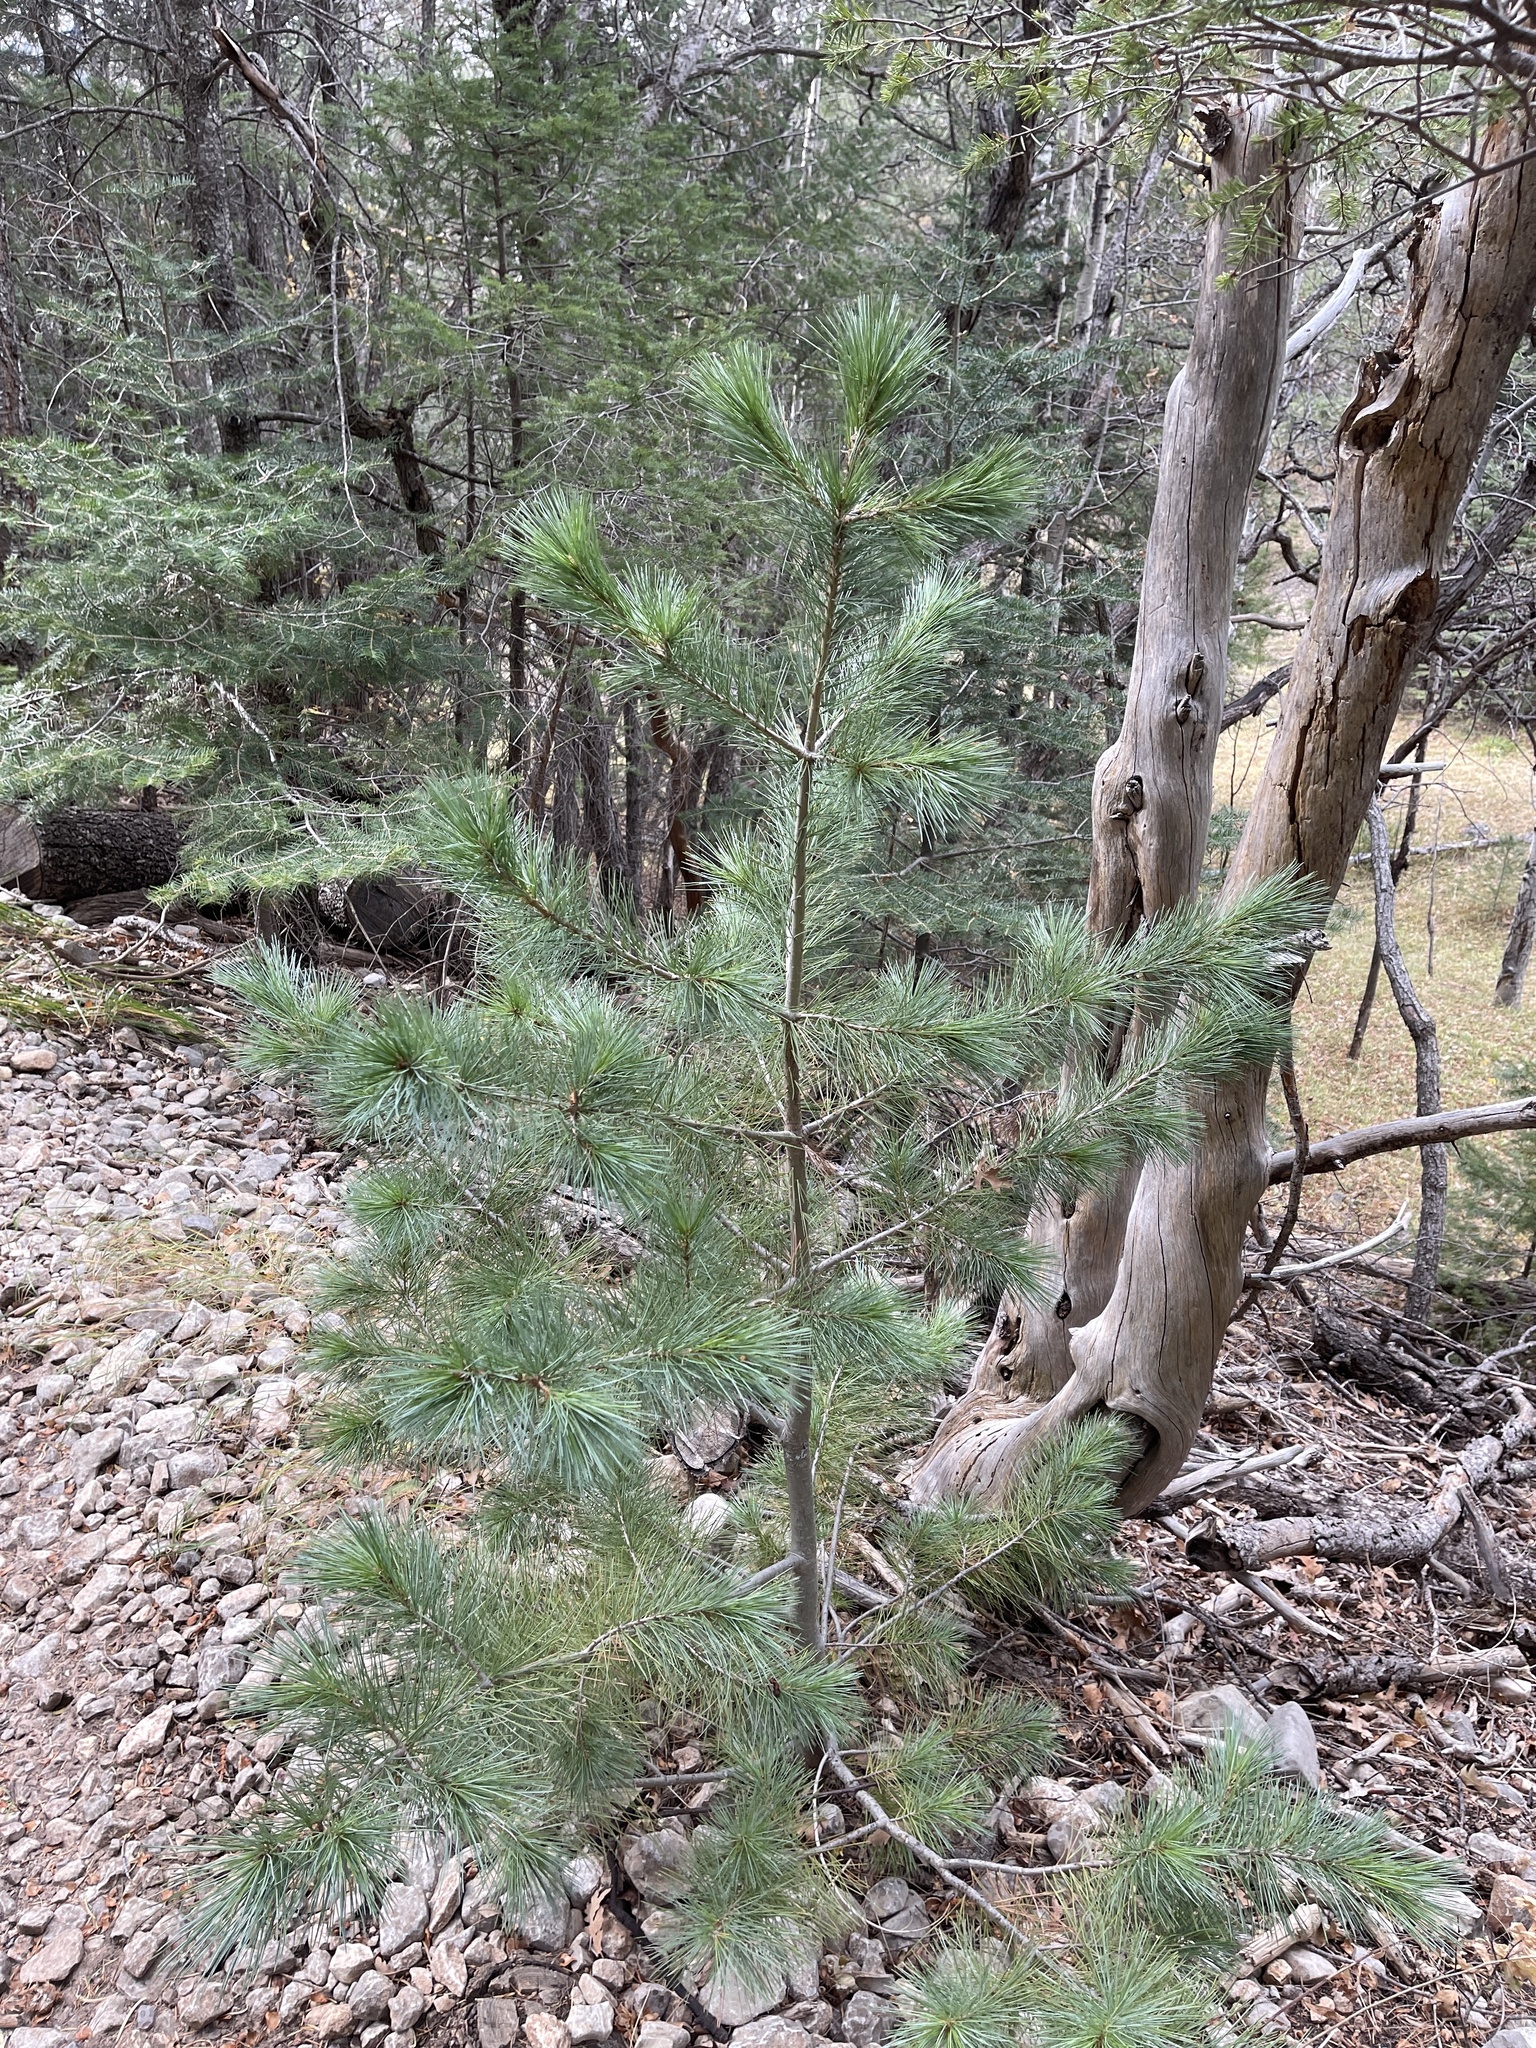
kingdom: Plantae
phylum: Tracheophyta
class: Pinopsida
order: Pinales
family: Pinaceae
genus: Pinus
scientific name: Pinus strobiformis
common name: Southwestern white pine
